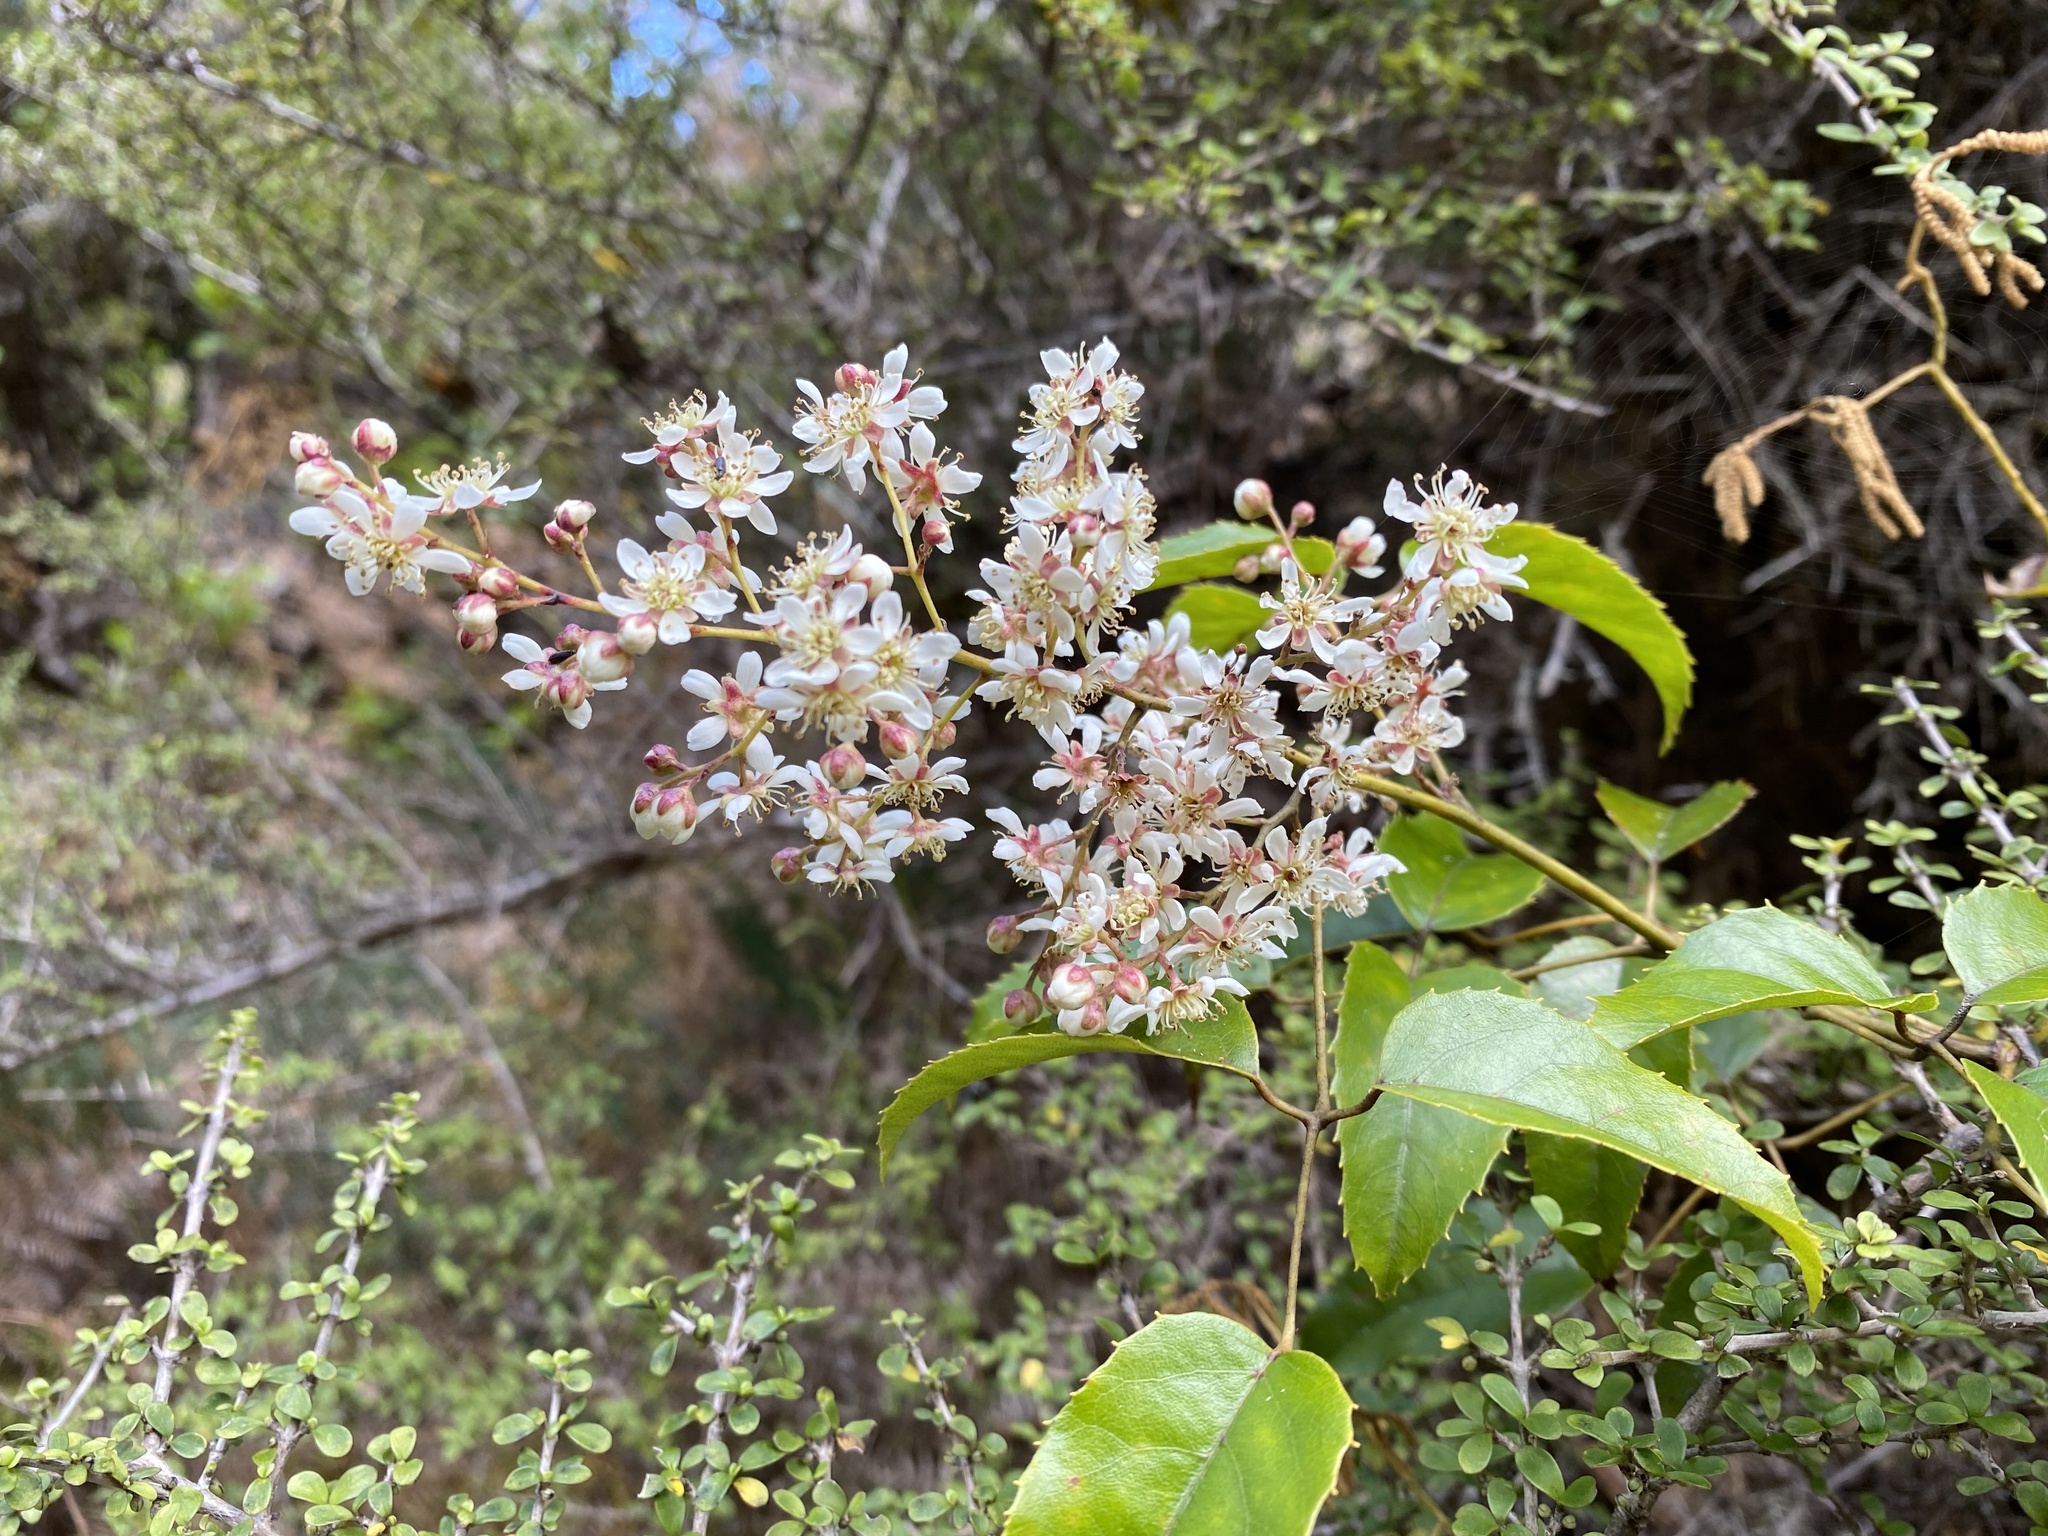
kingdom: Plantae
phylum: Tracheophyta
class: Magnoliopsida
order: Rosales
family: Rosaceae
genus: Rubus
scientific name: Rubus cissoides
